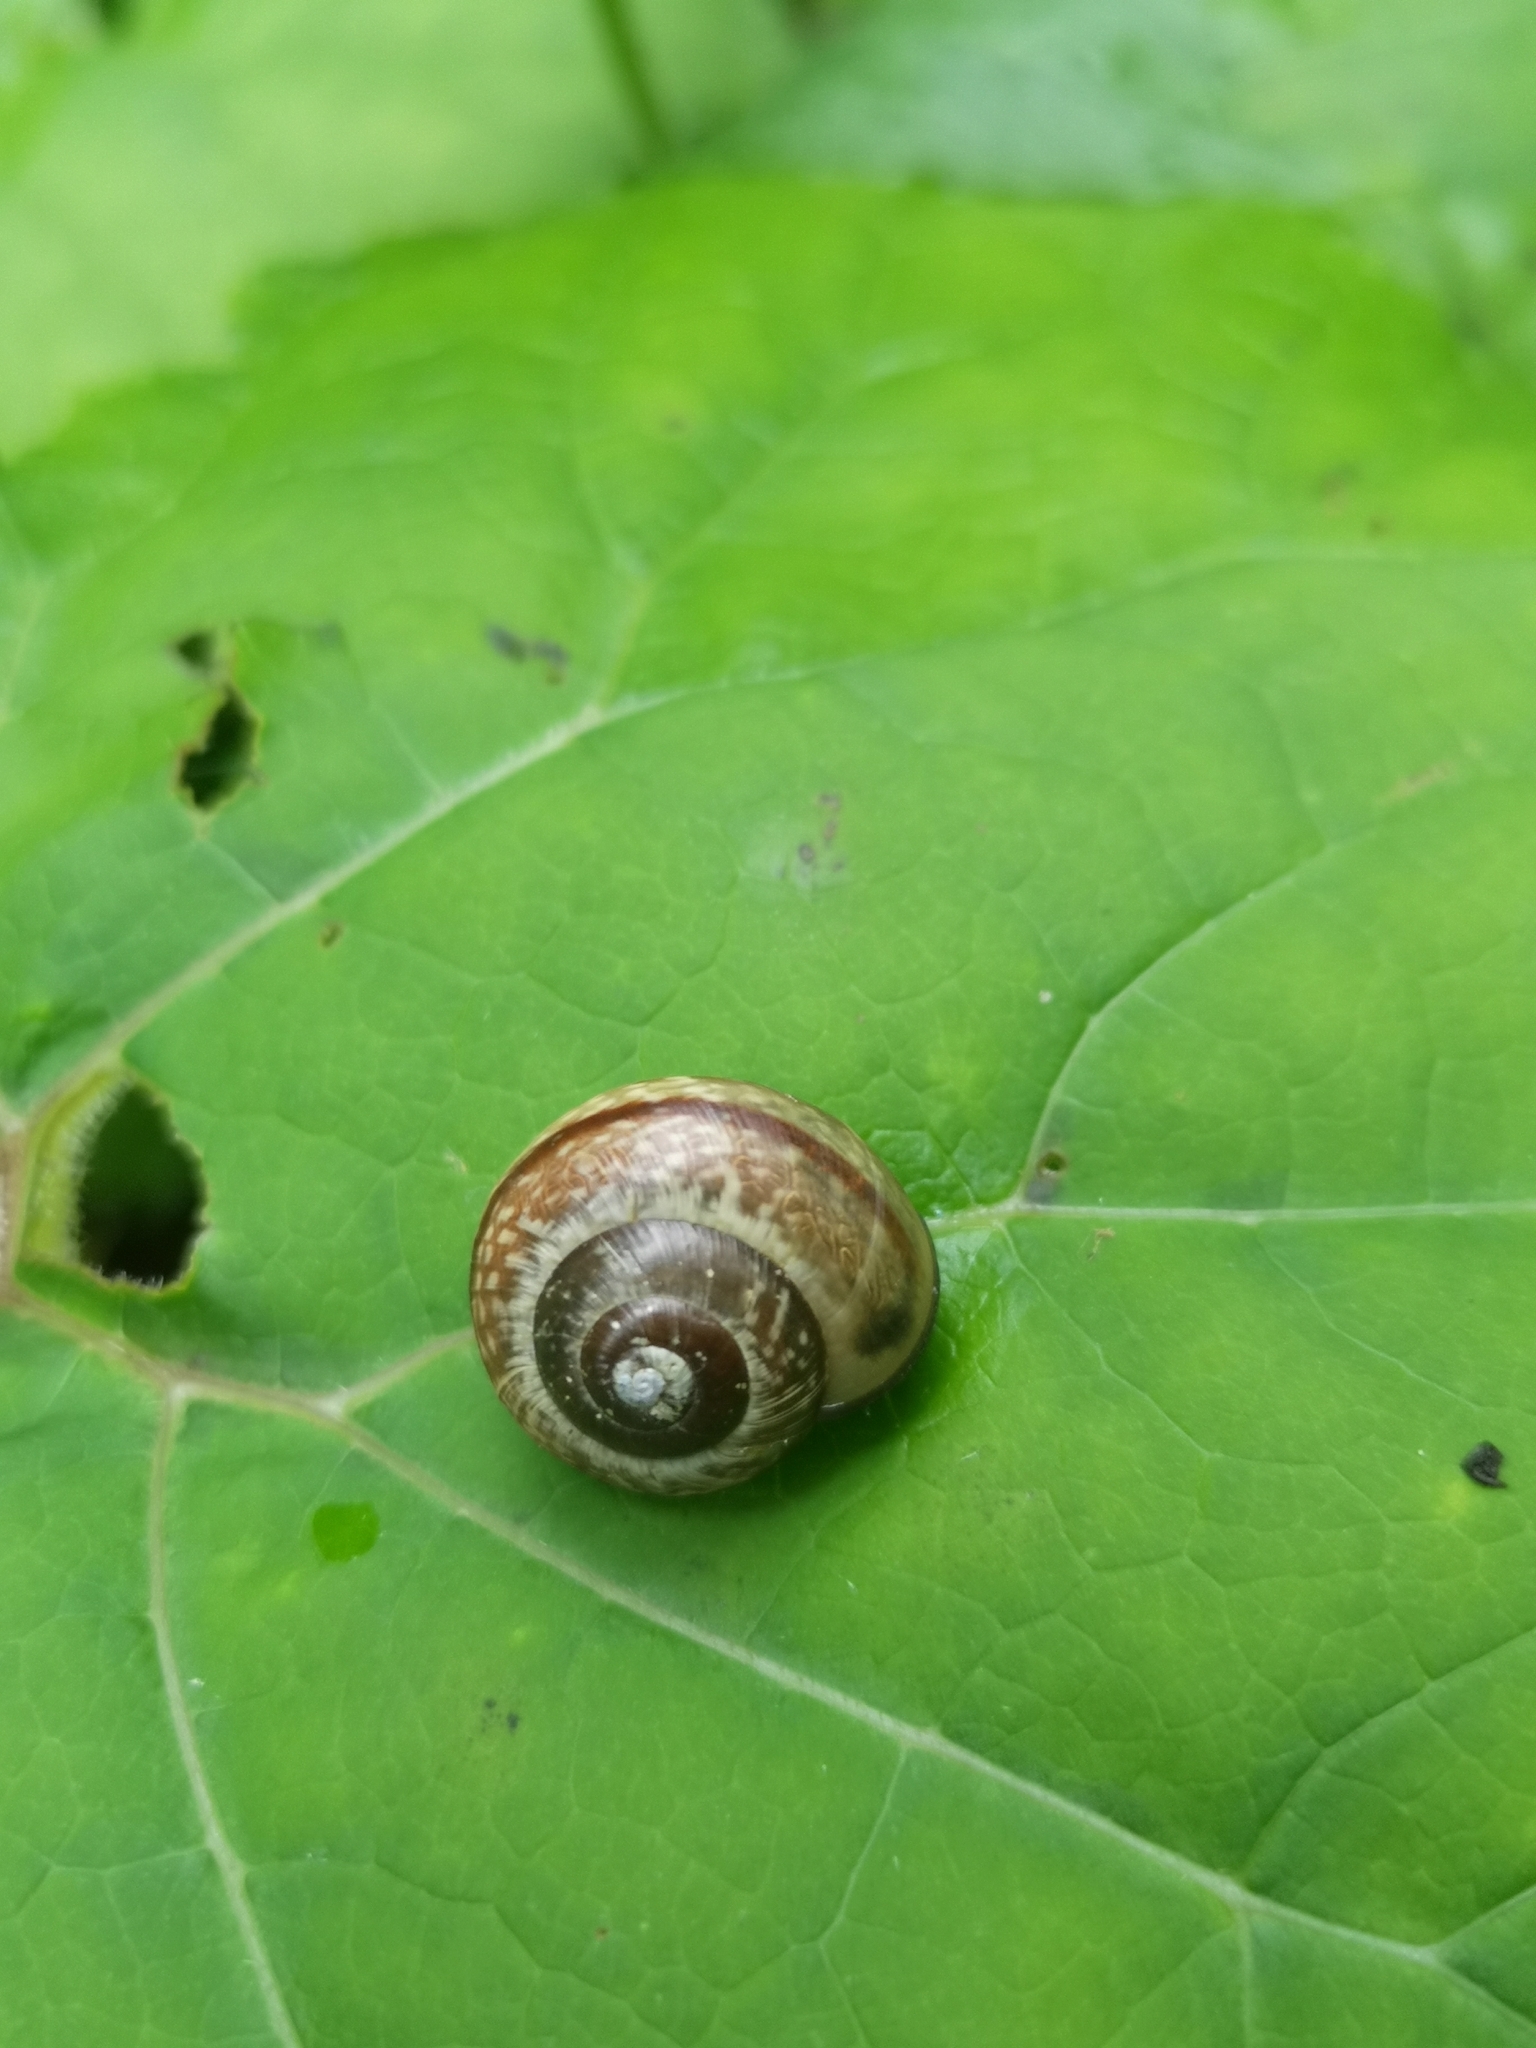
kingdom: Animalia
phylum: Mollusca
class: Gastropoda
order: Stylommatophora
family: Helicidae
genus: Arianta
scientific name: Arianta arbustorum
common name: Copse snail
